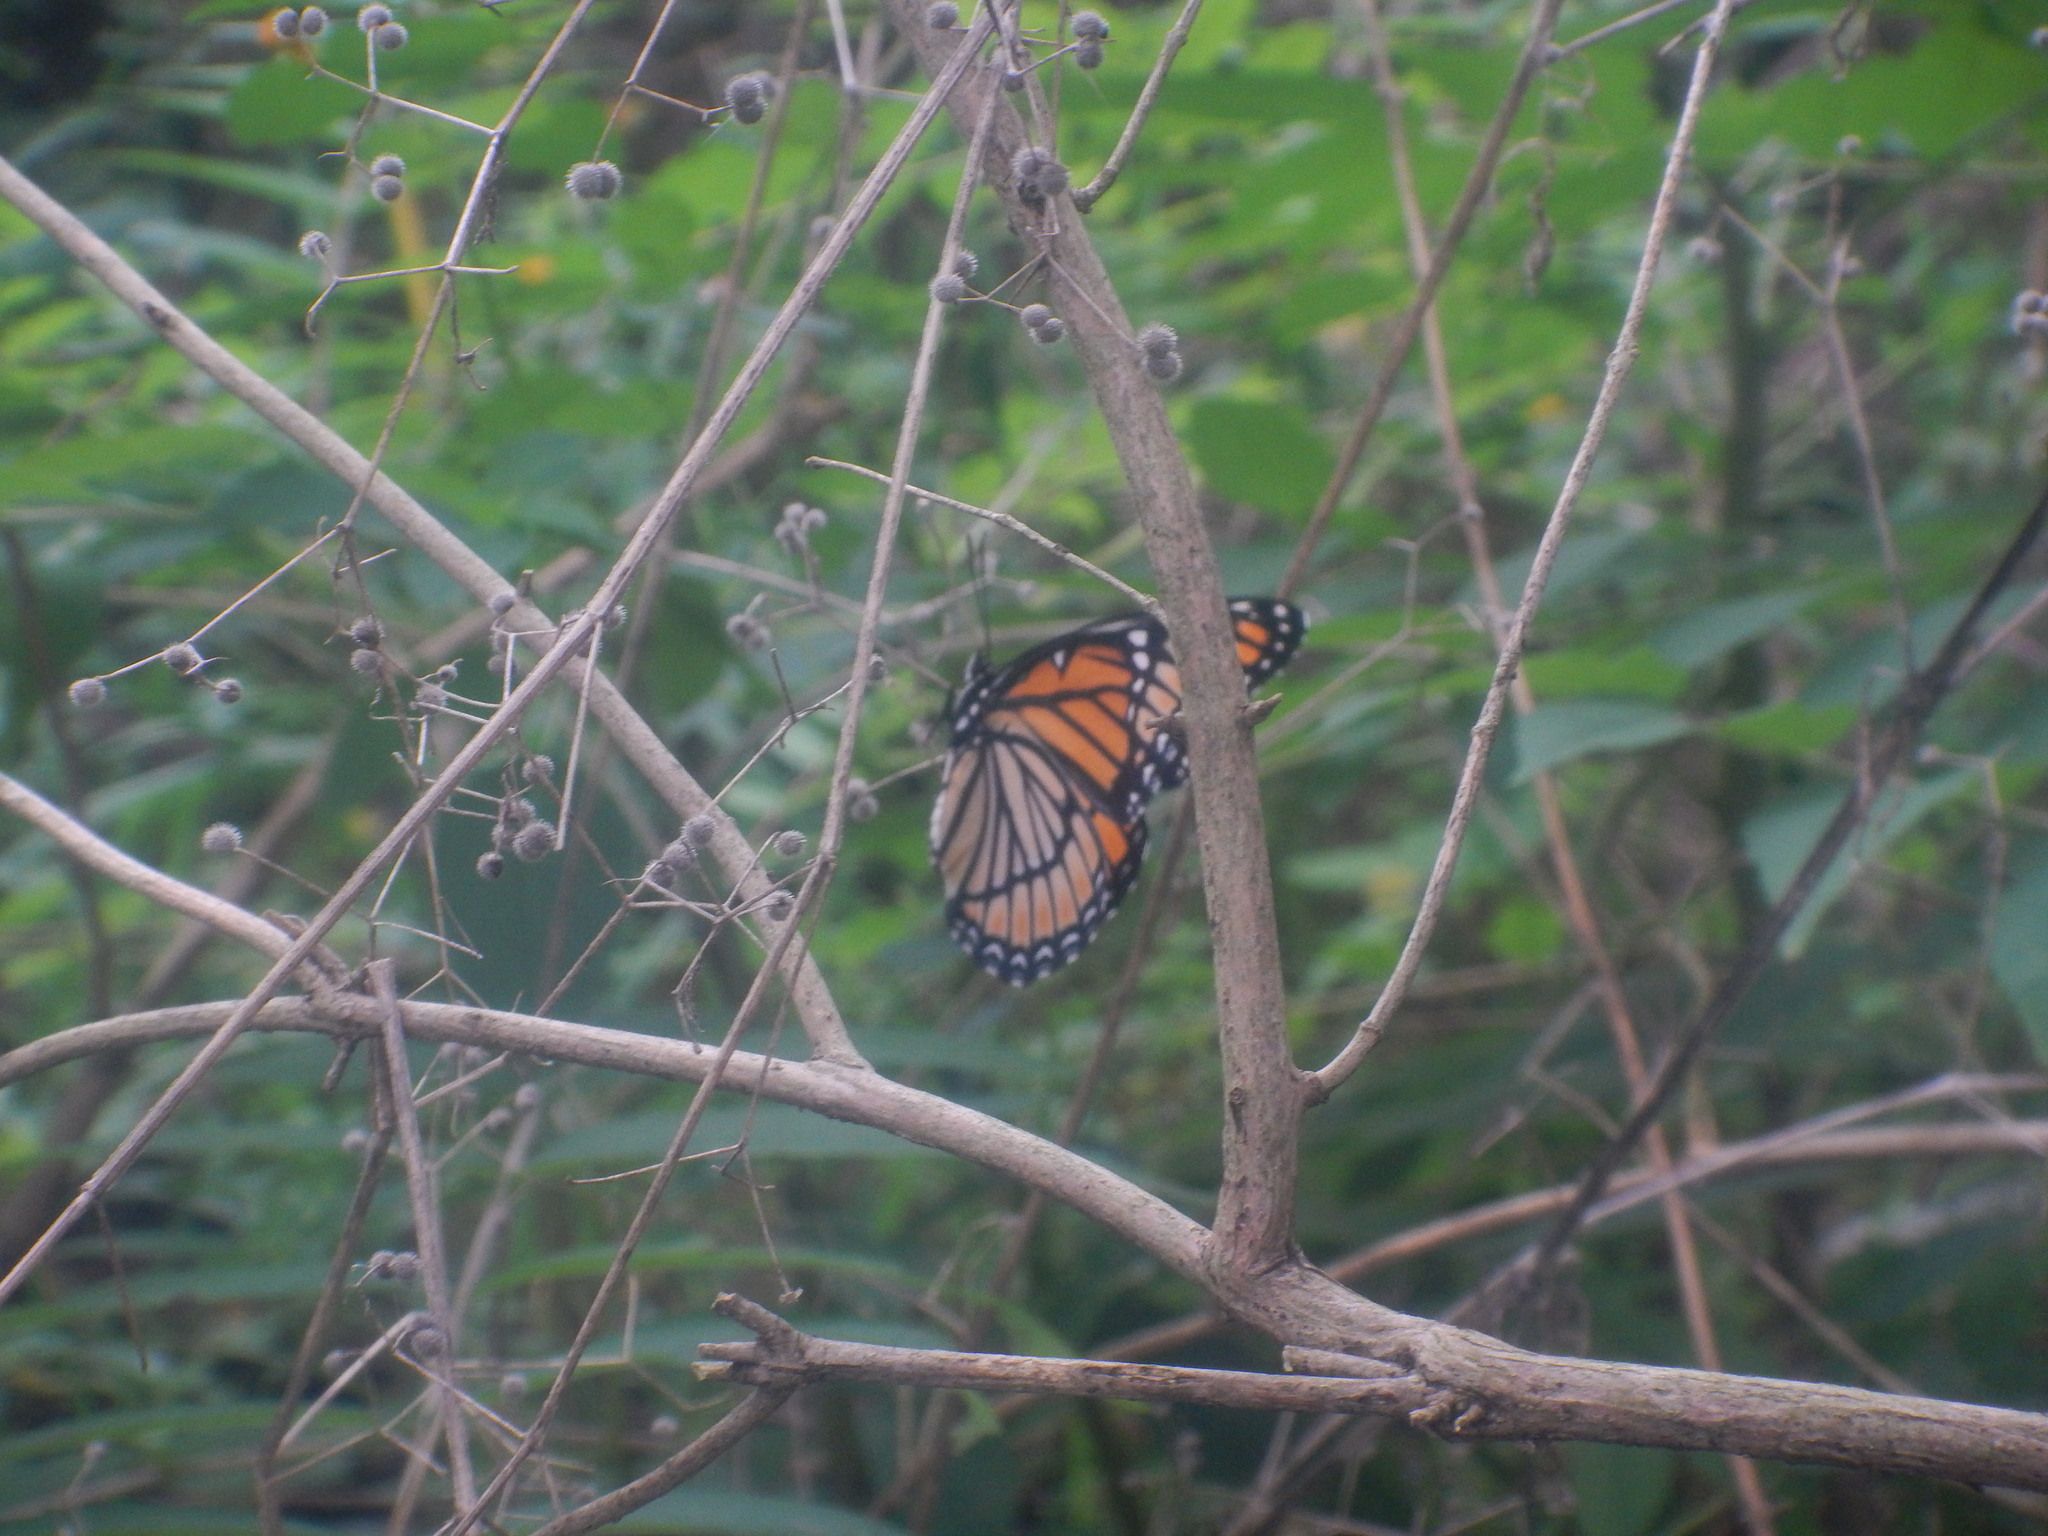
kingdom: Animalia
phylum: Arthropoda
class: Insecta
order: Lepidoptera
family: Nymphalidae
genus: Limenitis
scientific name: Limenitis archippus
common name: Viceroy
